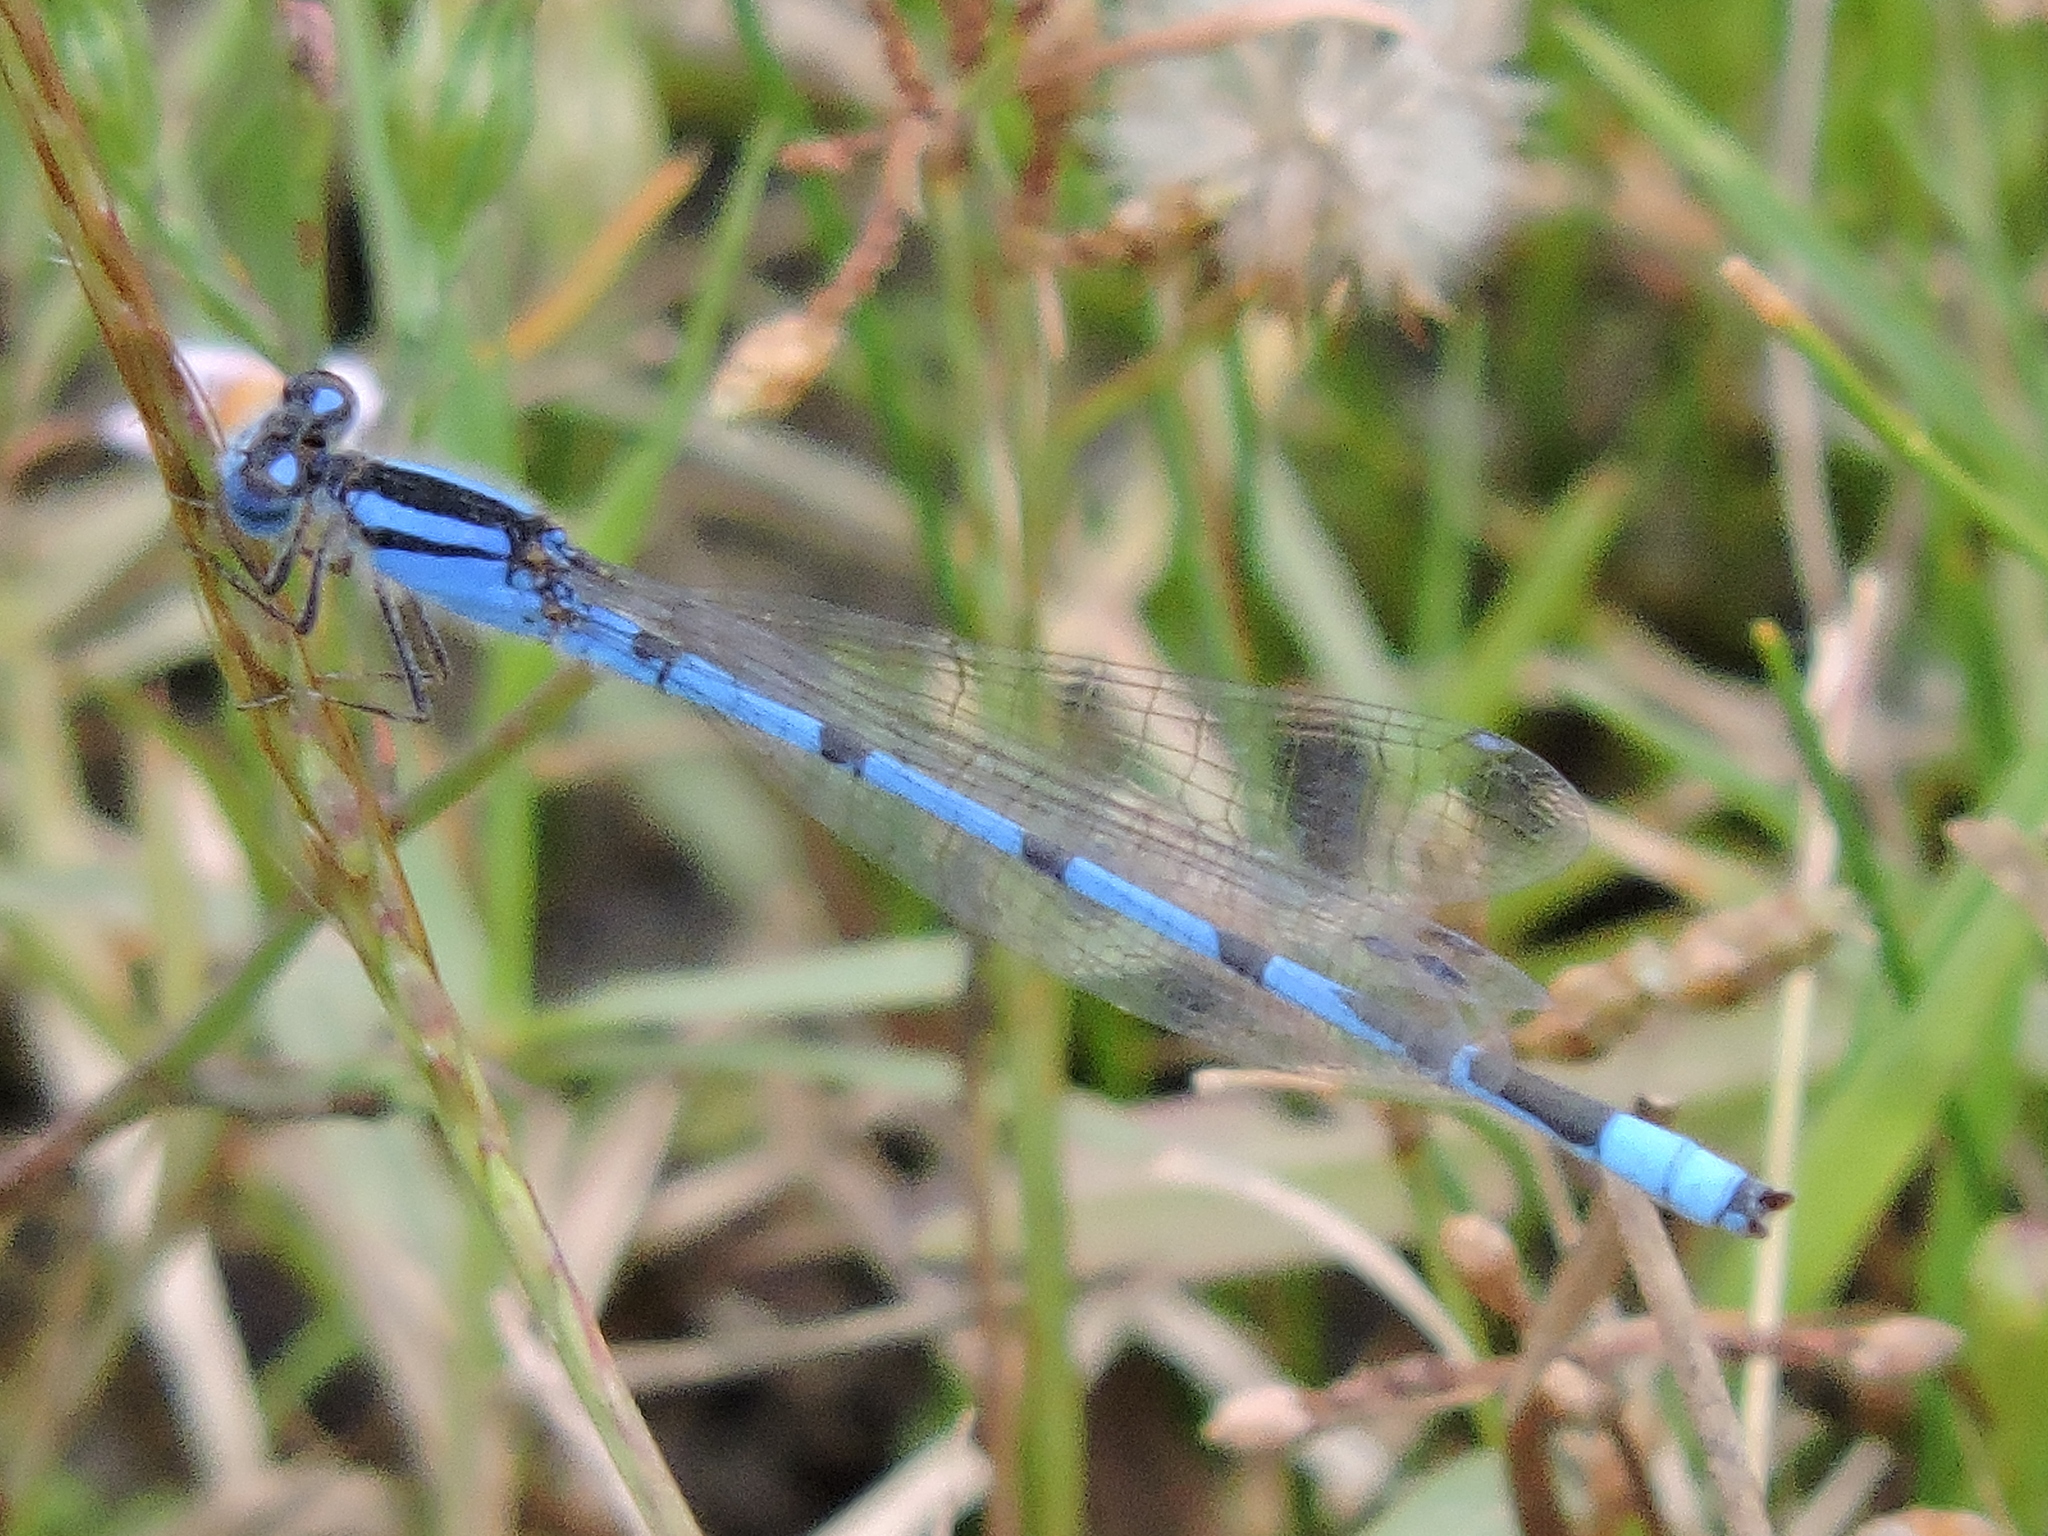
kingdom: Animalia
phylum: Arthropoda
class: Insecta
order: Odonata
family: Coenagrionidae
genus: Enallagma
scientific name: Enallagma civile
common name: Damselfly
